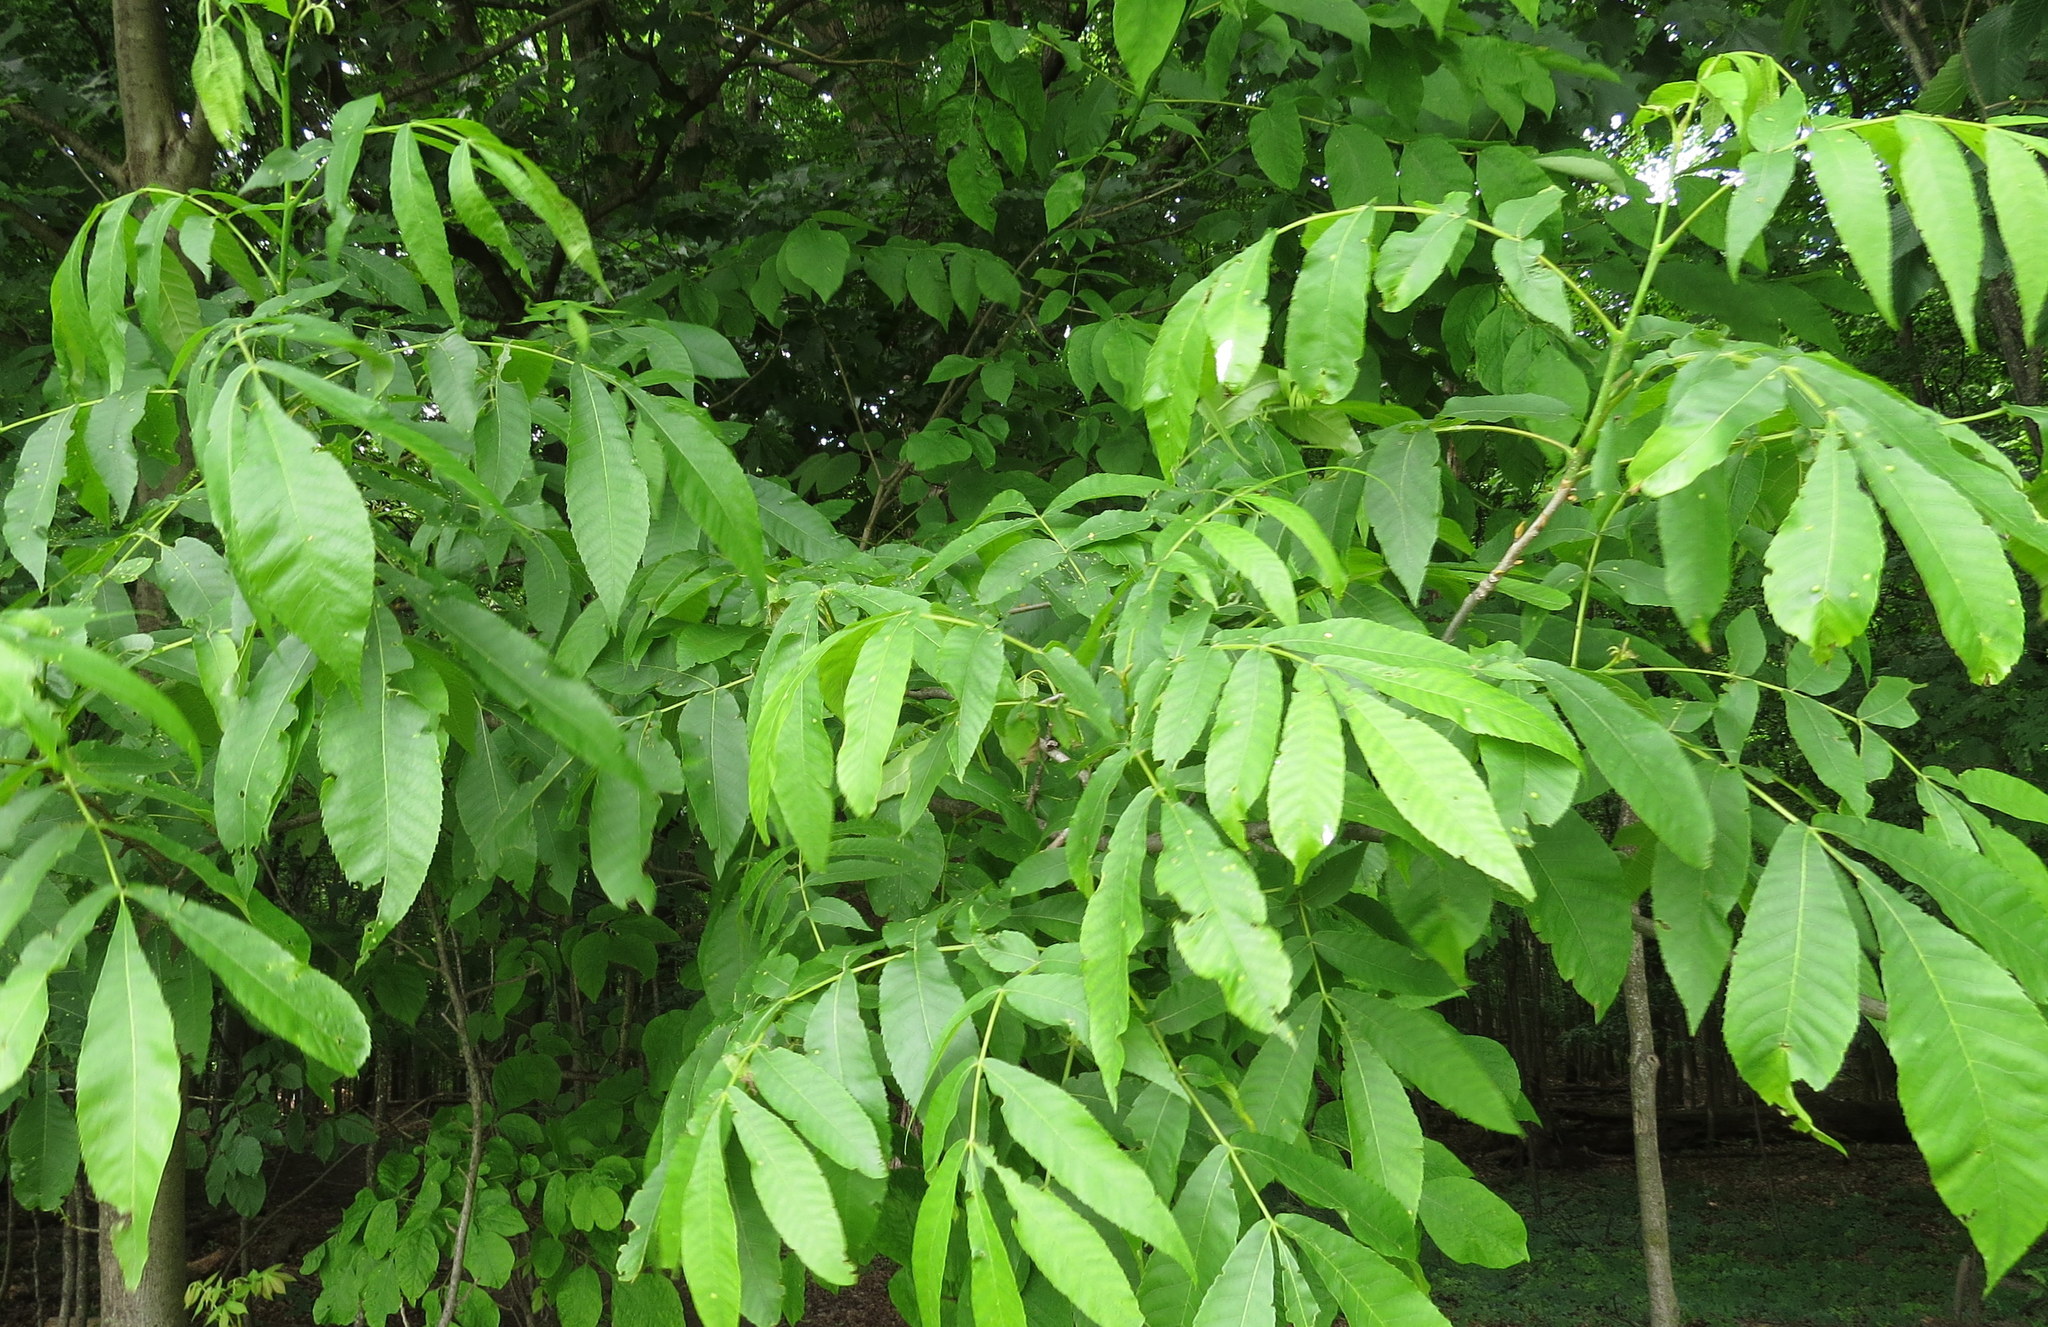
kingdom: Plantae
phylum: Tracheophyta
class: Magnoliopsida
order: Fagales
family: Juglandaceae
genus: Carya
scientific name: Carya cordiformis
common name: Bitternut hickory
